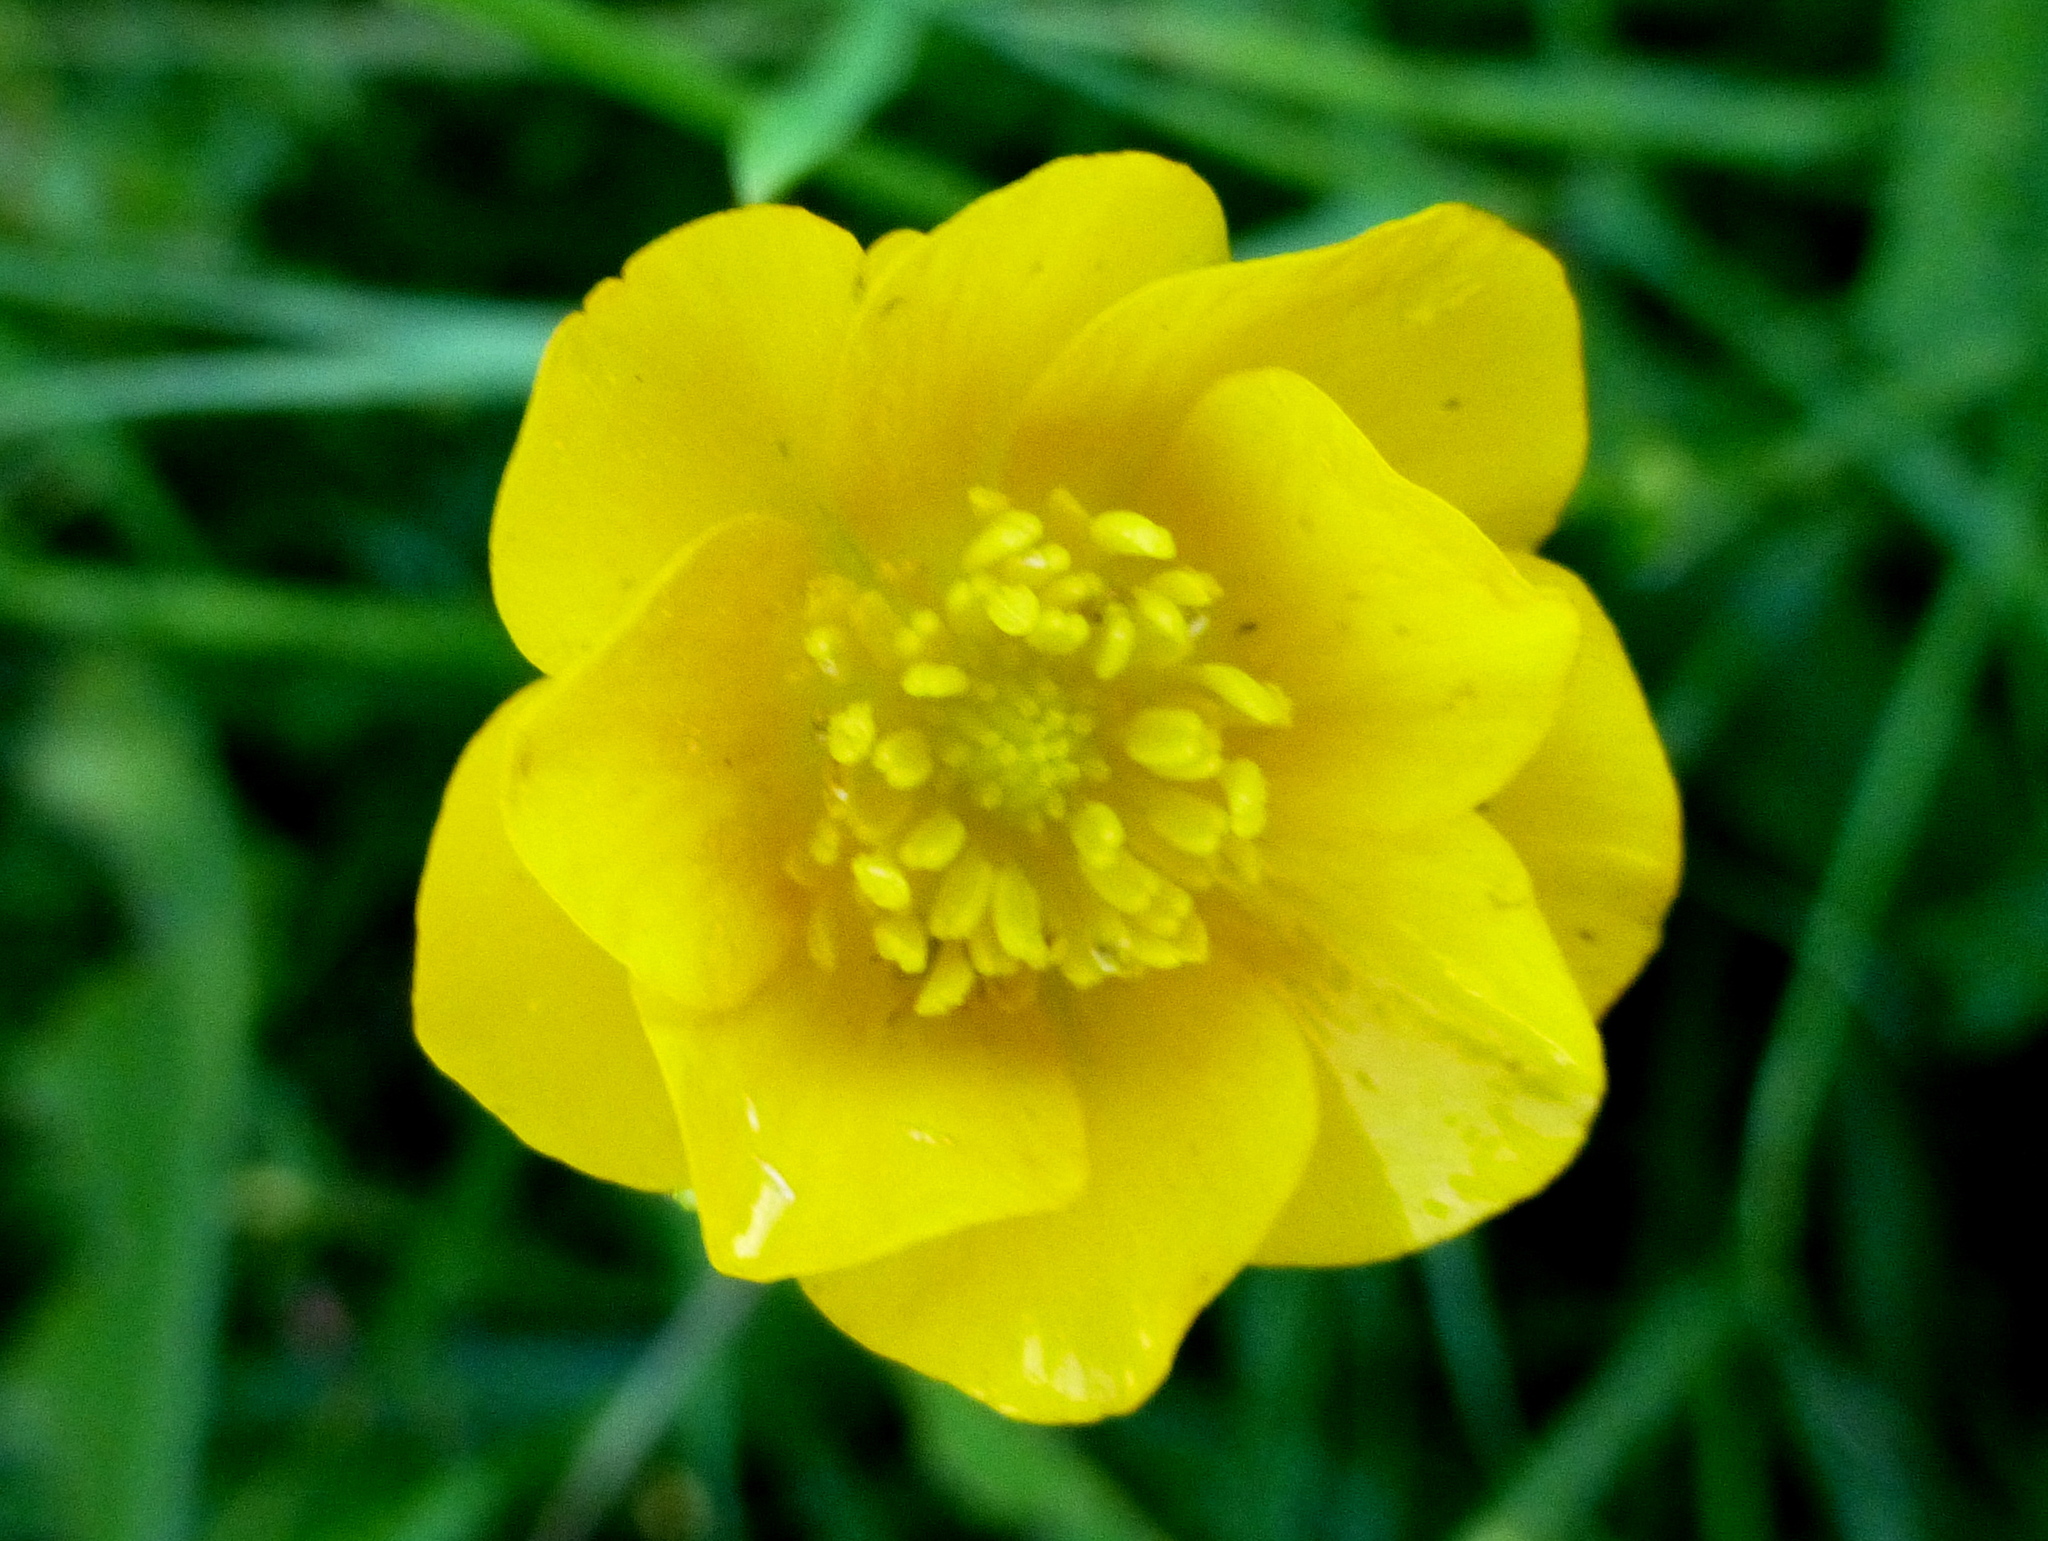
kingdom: Plantae
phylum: Tracheophyta
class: Magnoliopsida
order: Ranunculales
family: Ranunculaceae
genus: Ranunculus
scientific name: Ranunculus repens
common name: Creeping buttercup
